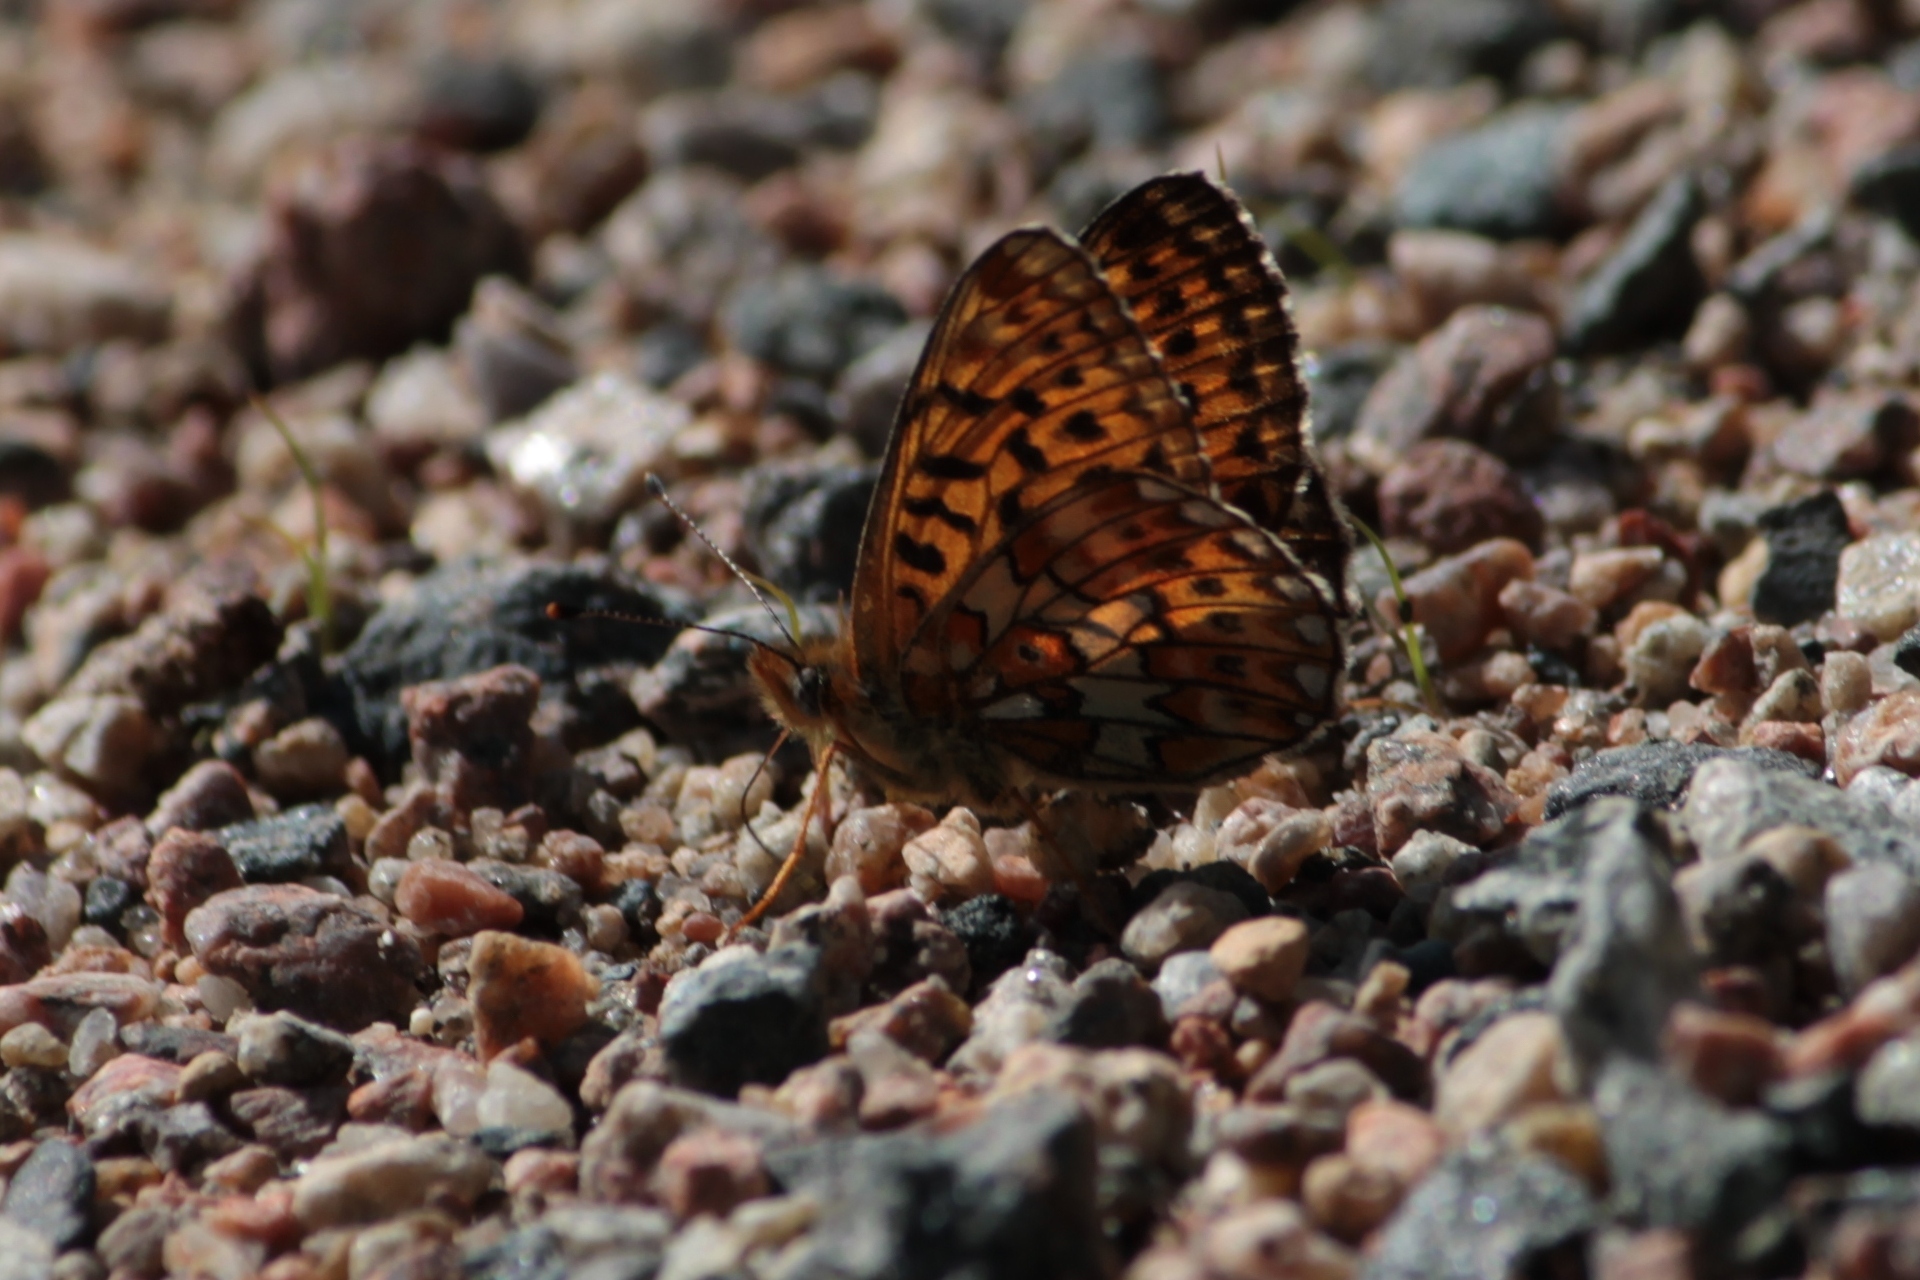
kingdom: Animalia
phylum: Arthropoda
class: Insecta
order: Lepidoptera
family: Nymphalidae
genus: Clossiana
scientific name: Clossiana euphrosyne
